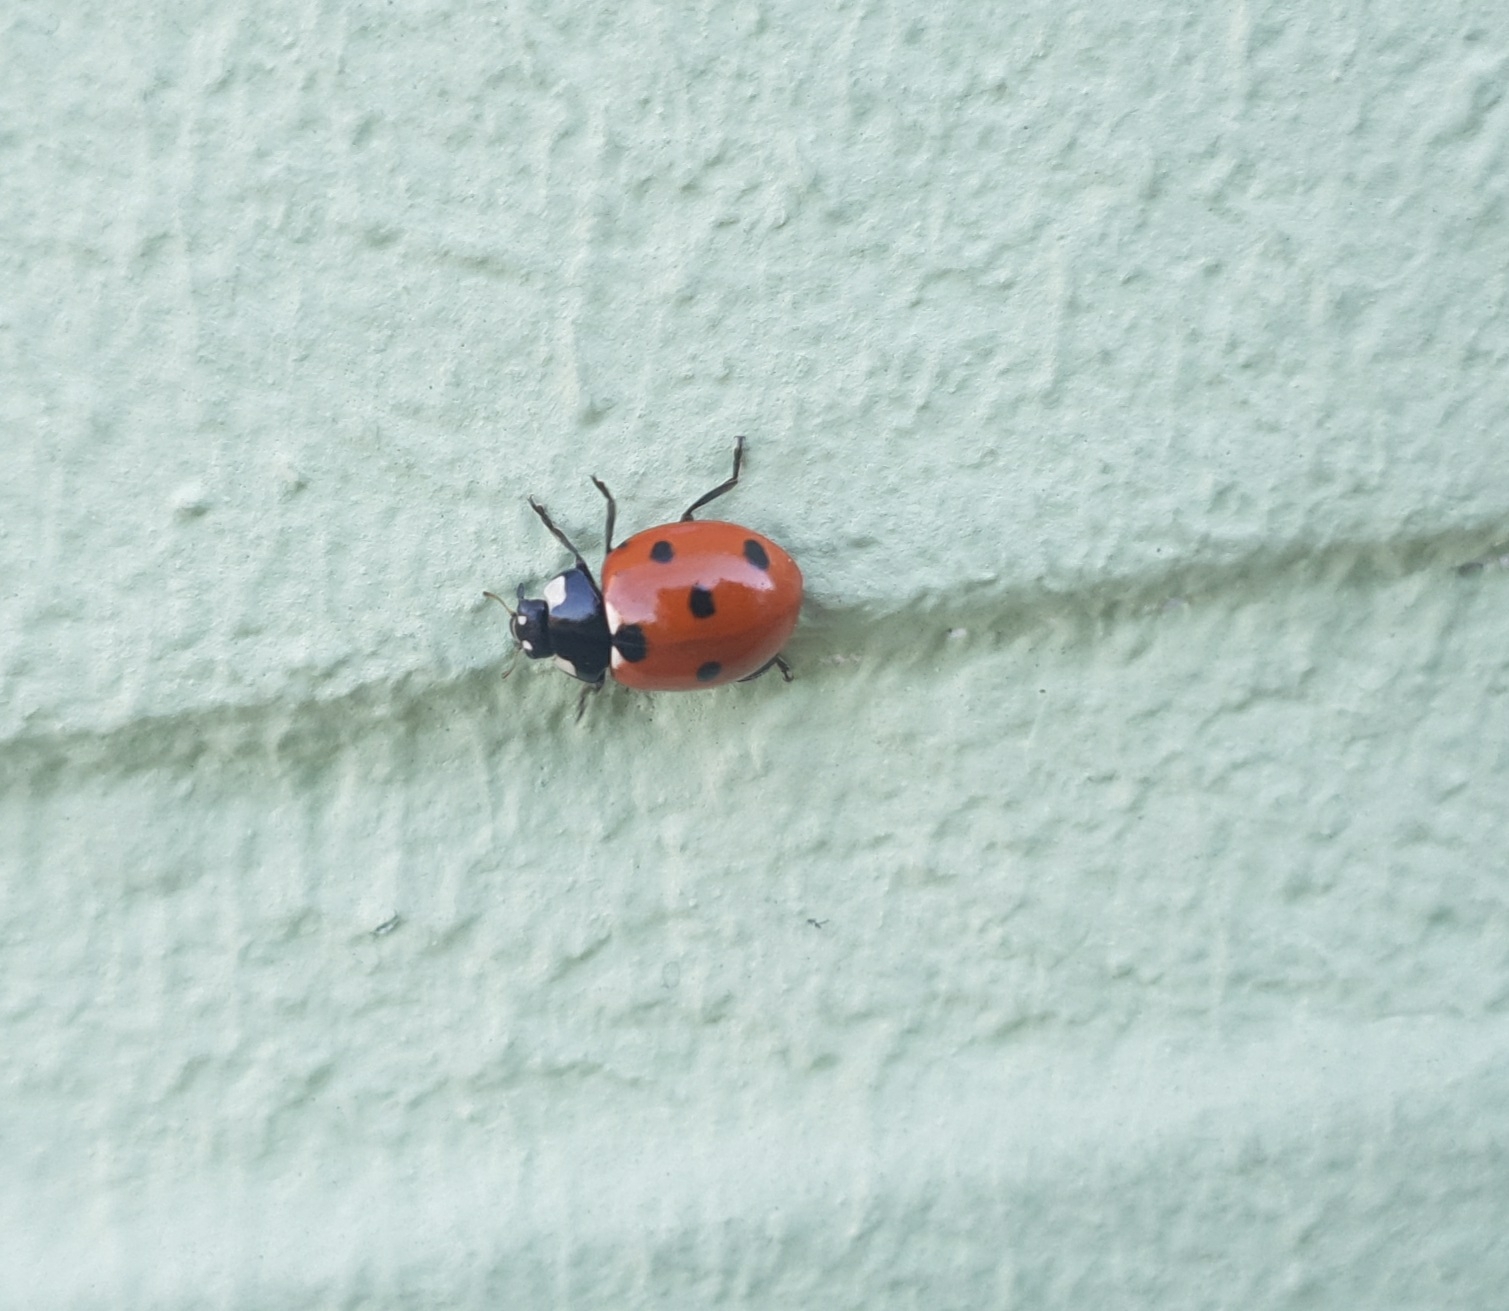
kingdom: Animalia
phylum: Arthropoda
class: Insecta
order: Coleoptera
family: Coccinellidae
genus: Coccinella
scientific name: Coccinella septempunctata
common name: Sevenspotted lady beetle
